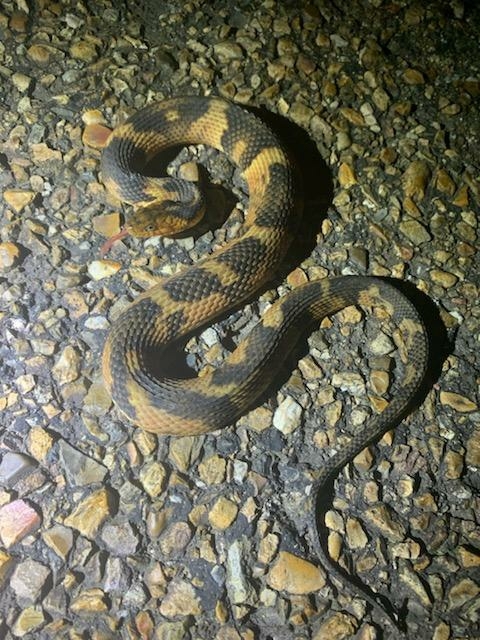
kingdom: Animalia
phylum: Chordata
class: Squamata
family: Colubridae
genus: Nerodia
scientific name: Nerodia fasciata
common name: Southern water snake
